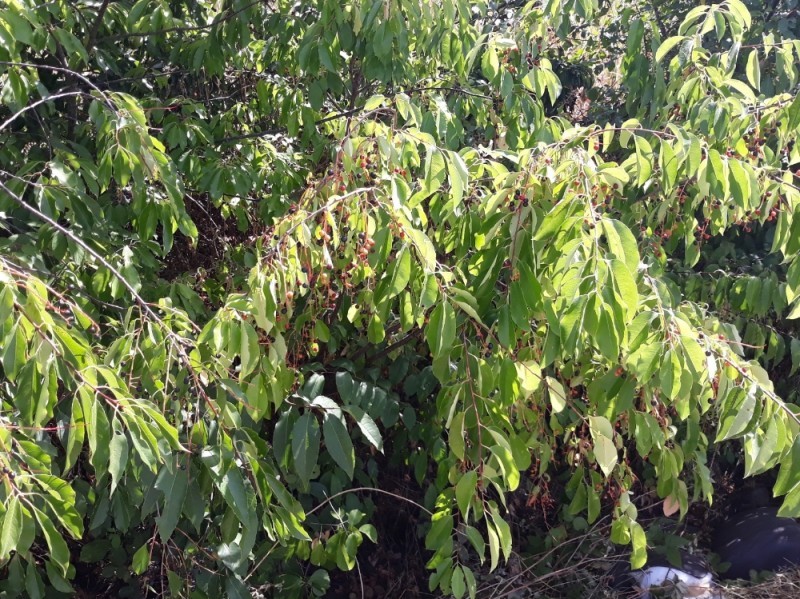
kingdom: Plantae
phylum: Tracheophyta
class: Magnoliopsida
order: Rosales
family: Rosaceae
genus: Prunus
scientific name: Prunus serotina
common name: Black cherry
